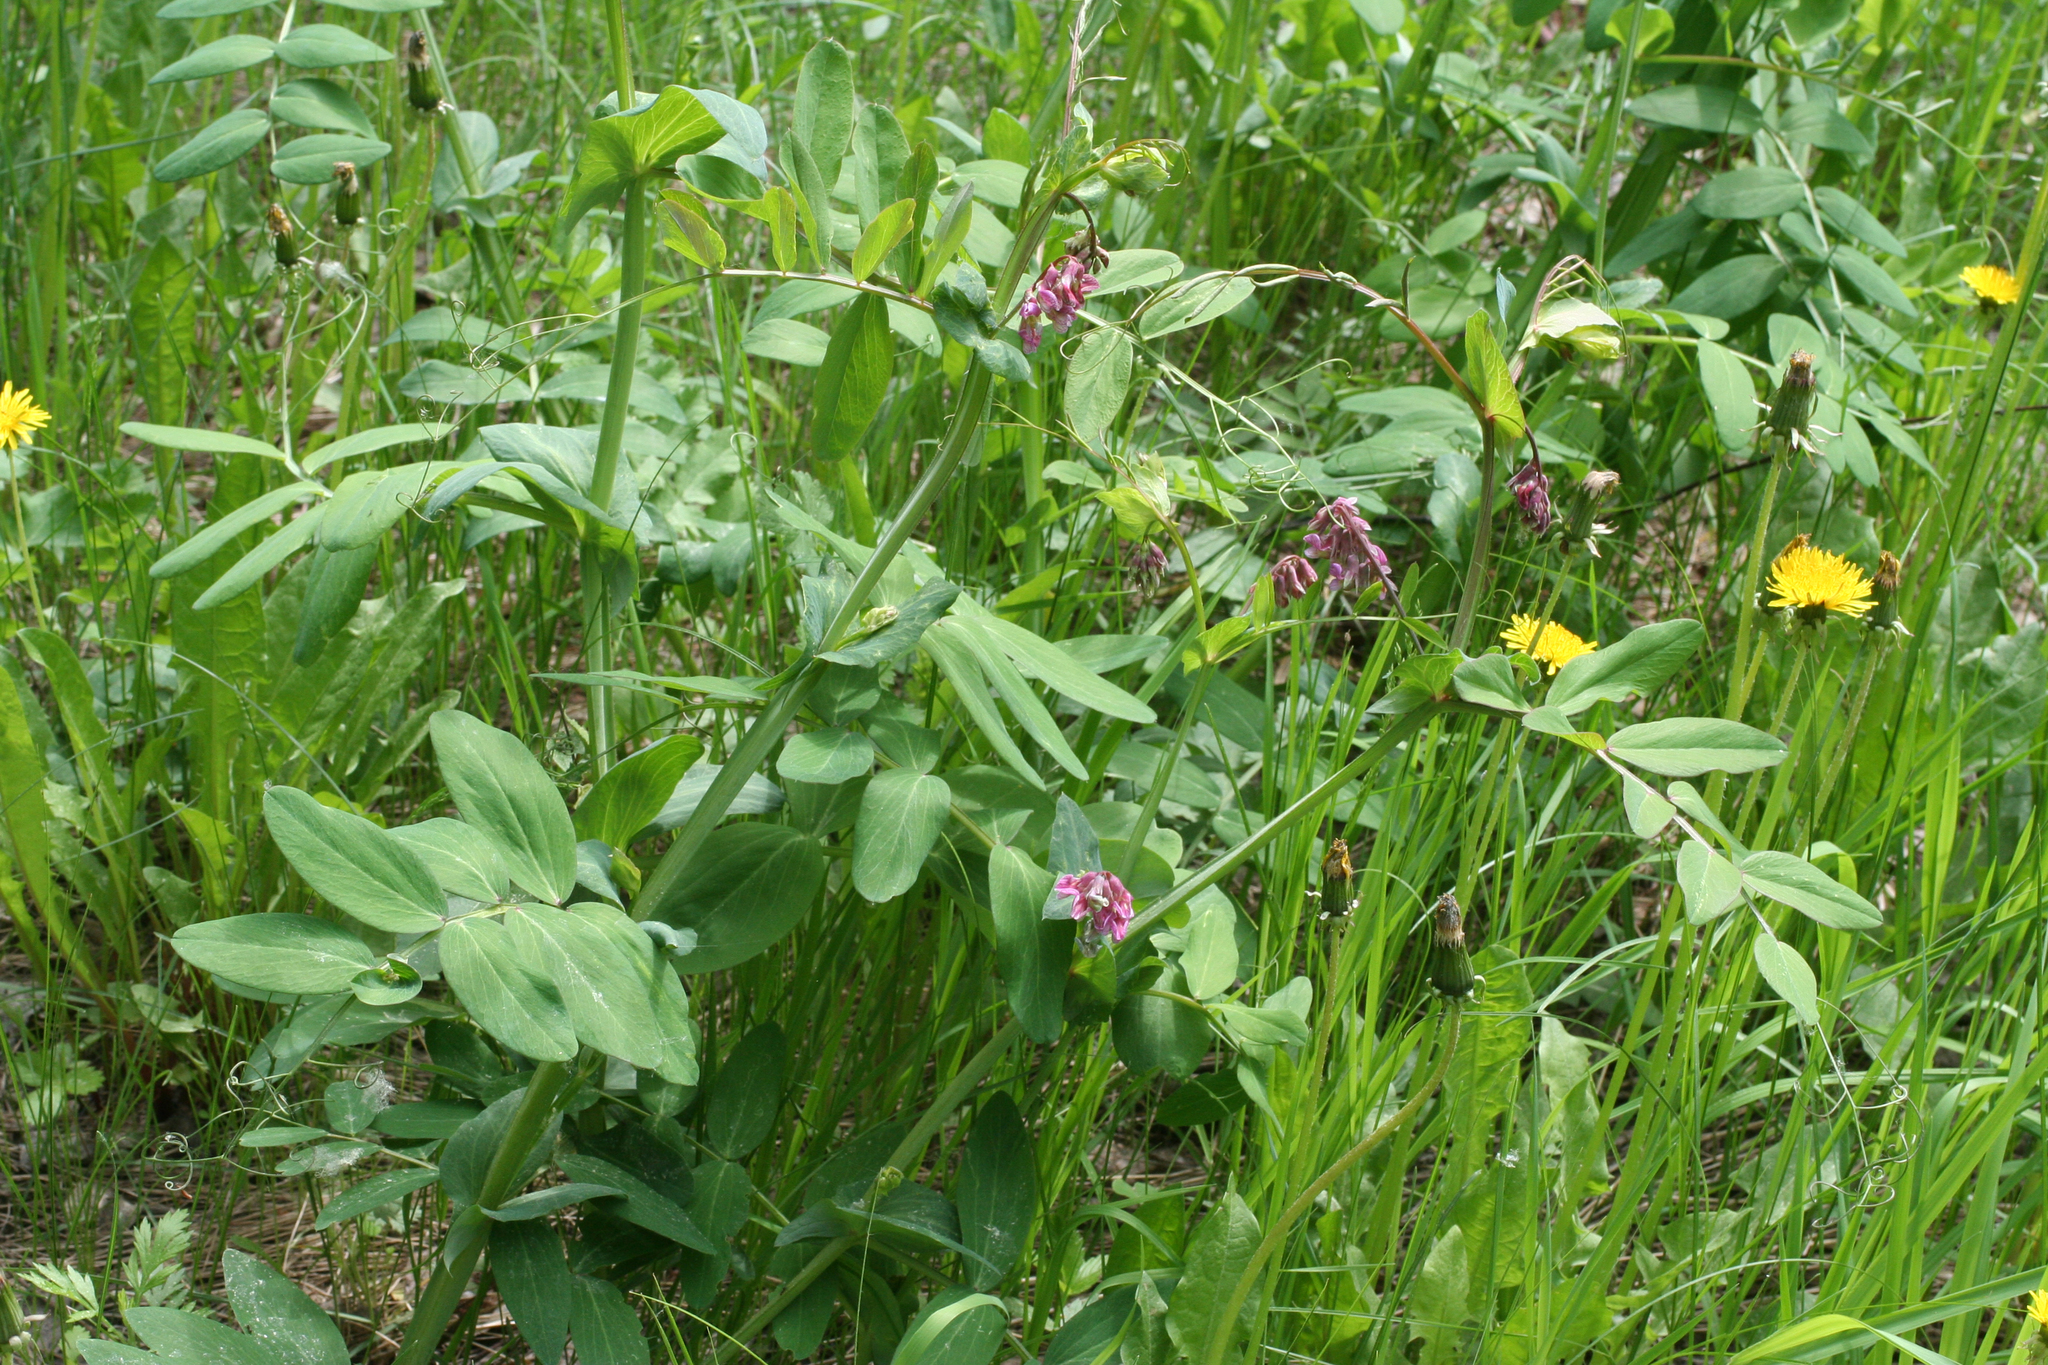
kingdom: Plantae
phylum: Tracheophyta
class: Magnoliopsida
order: Fabales
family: Fabaceae
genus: Lathyrus
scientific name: Lathyrus pisiformis
